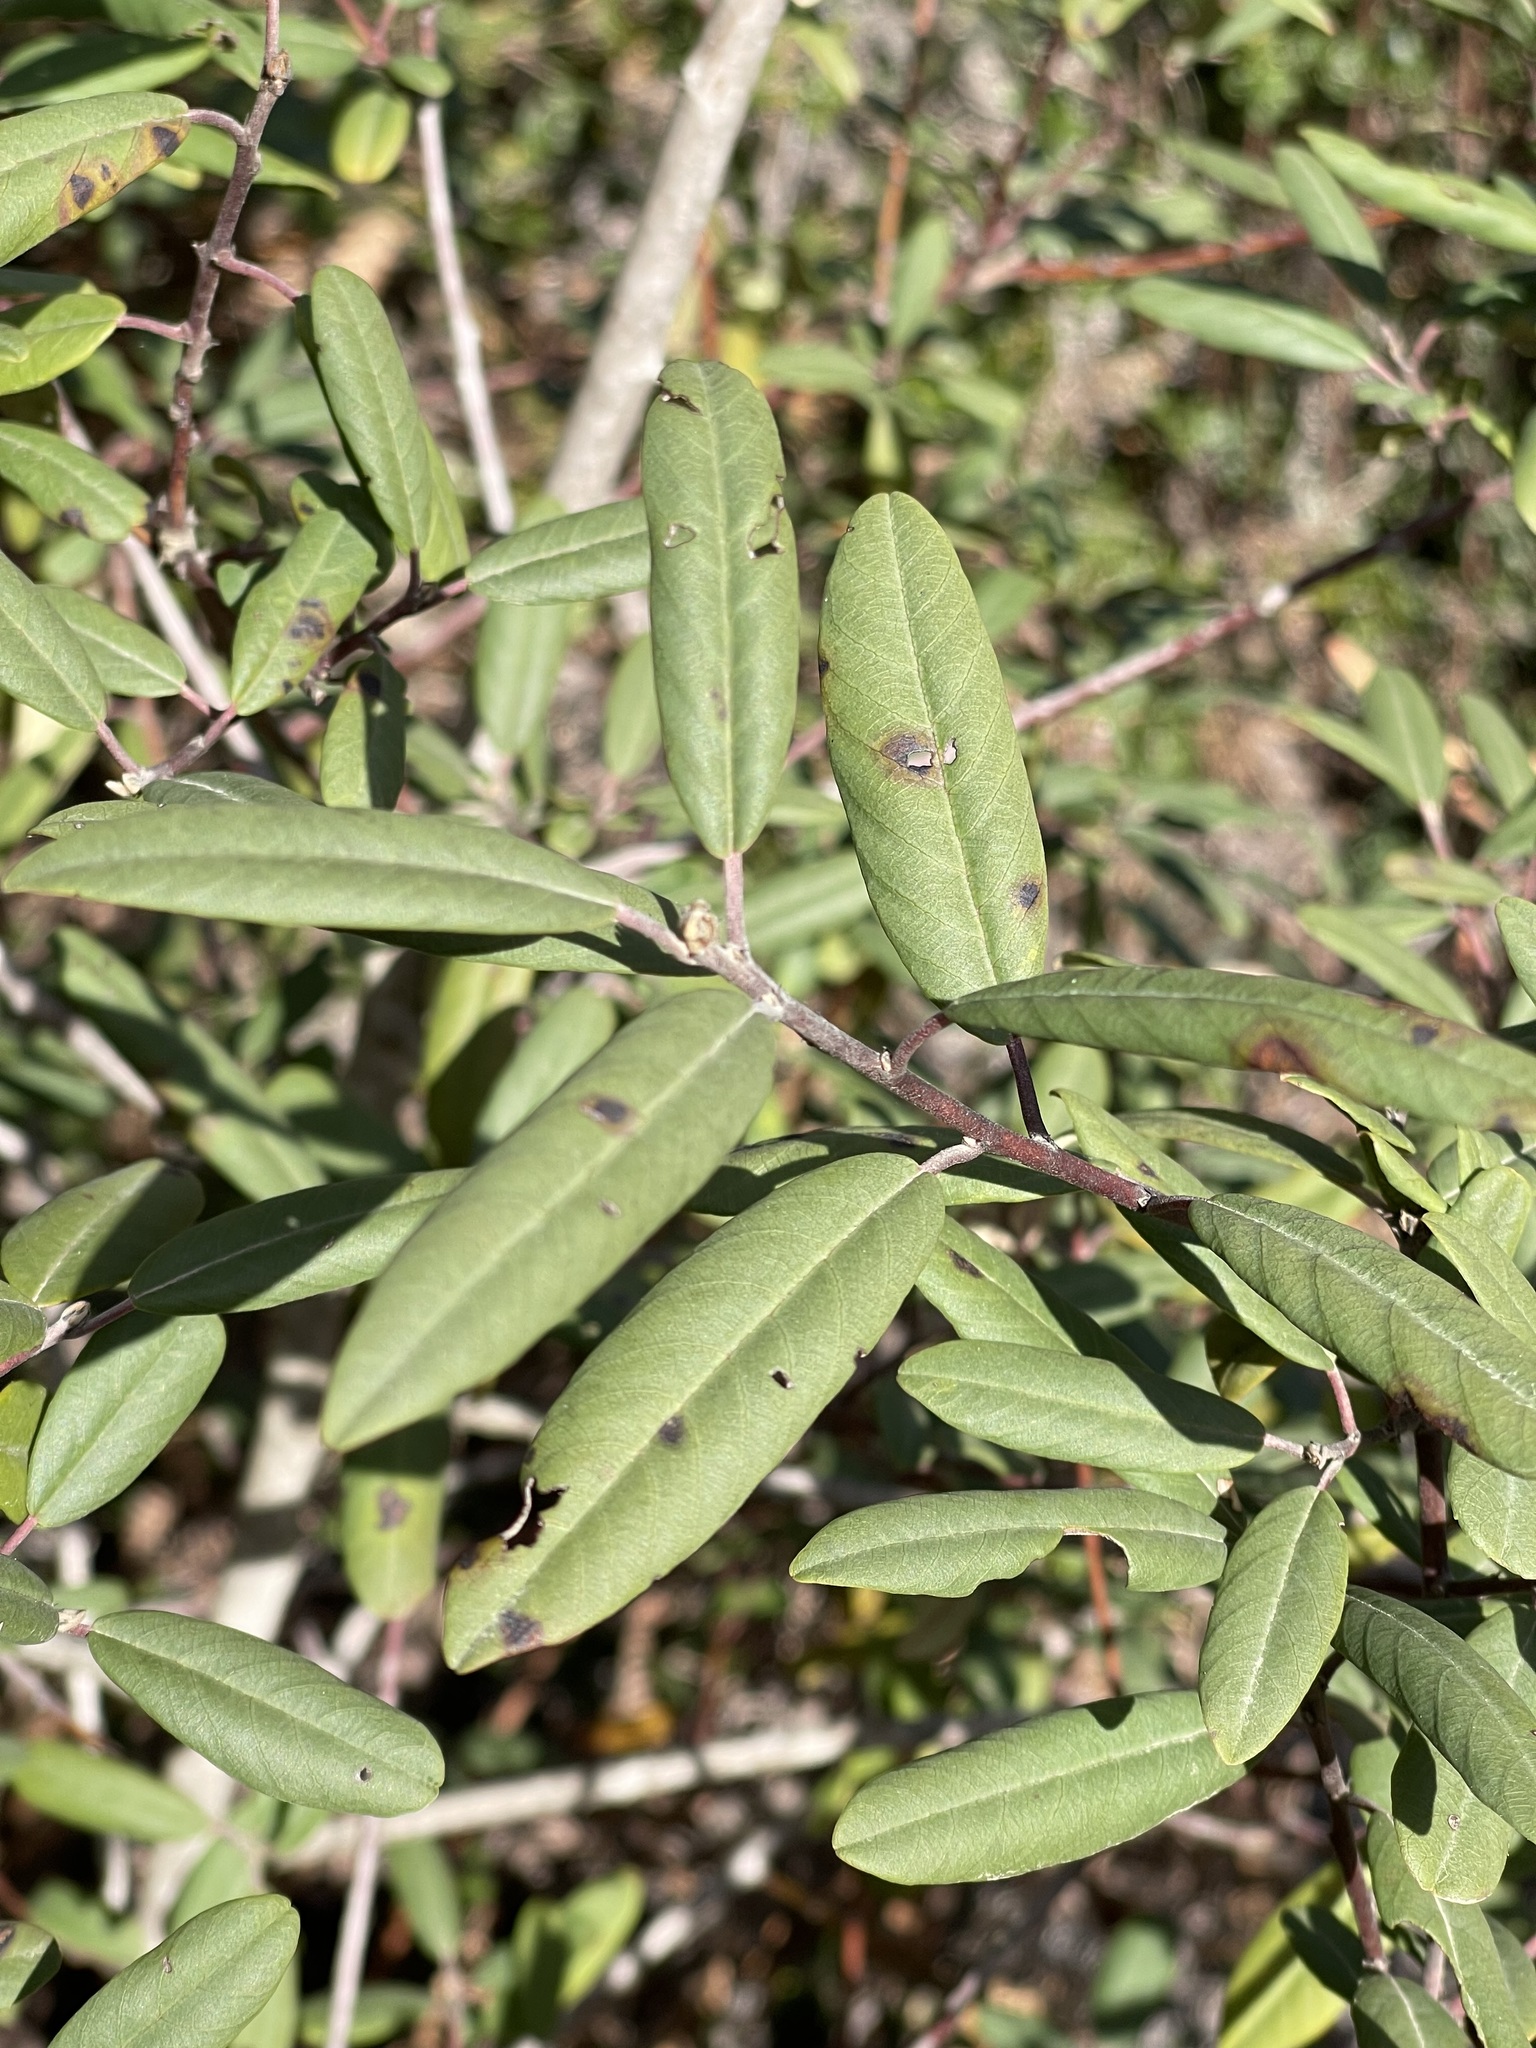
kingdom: Plantae
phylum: Tracheophyta
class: Magnoliopsida
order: Rosales
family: Rhamnaceae
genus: Frangula
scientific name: Frangula californica
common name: California buckthorn
